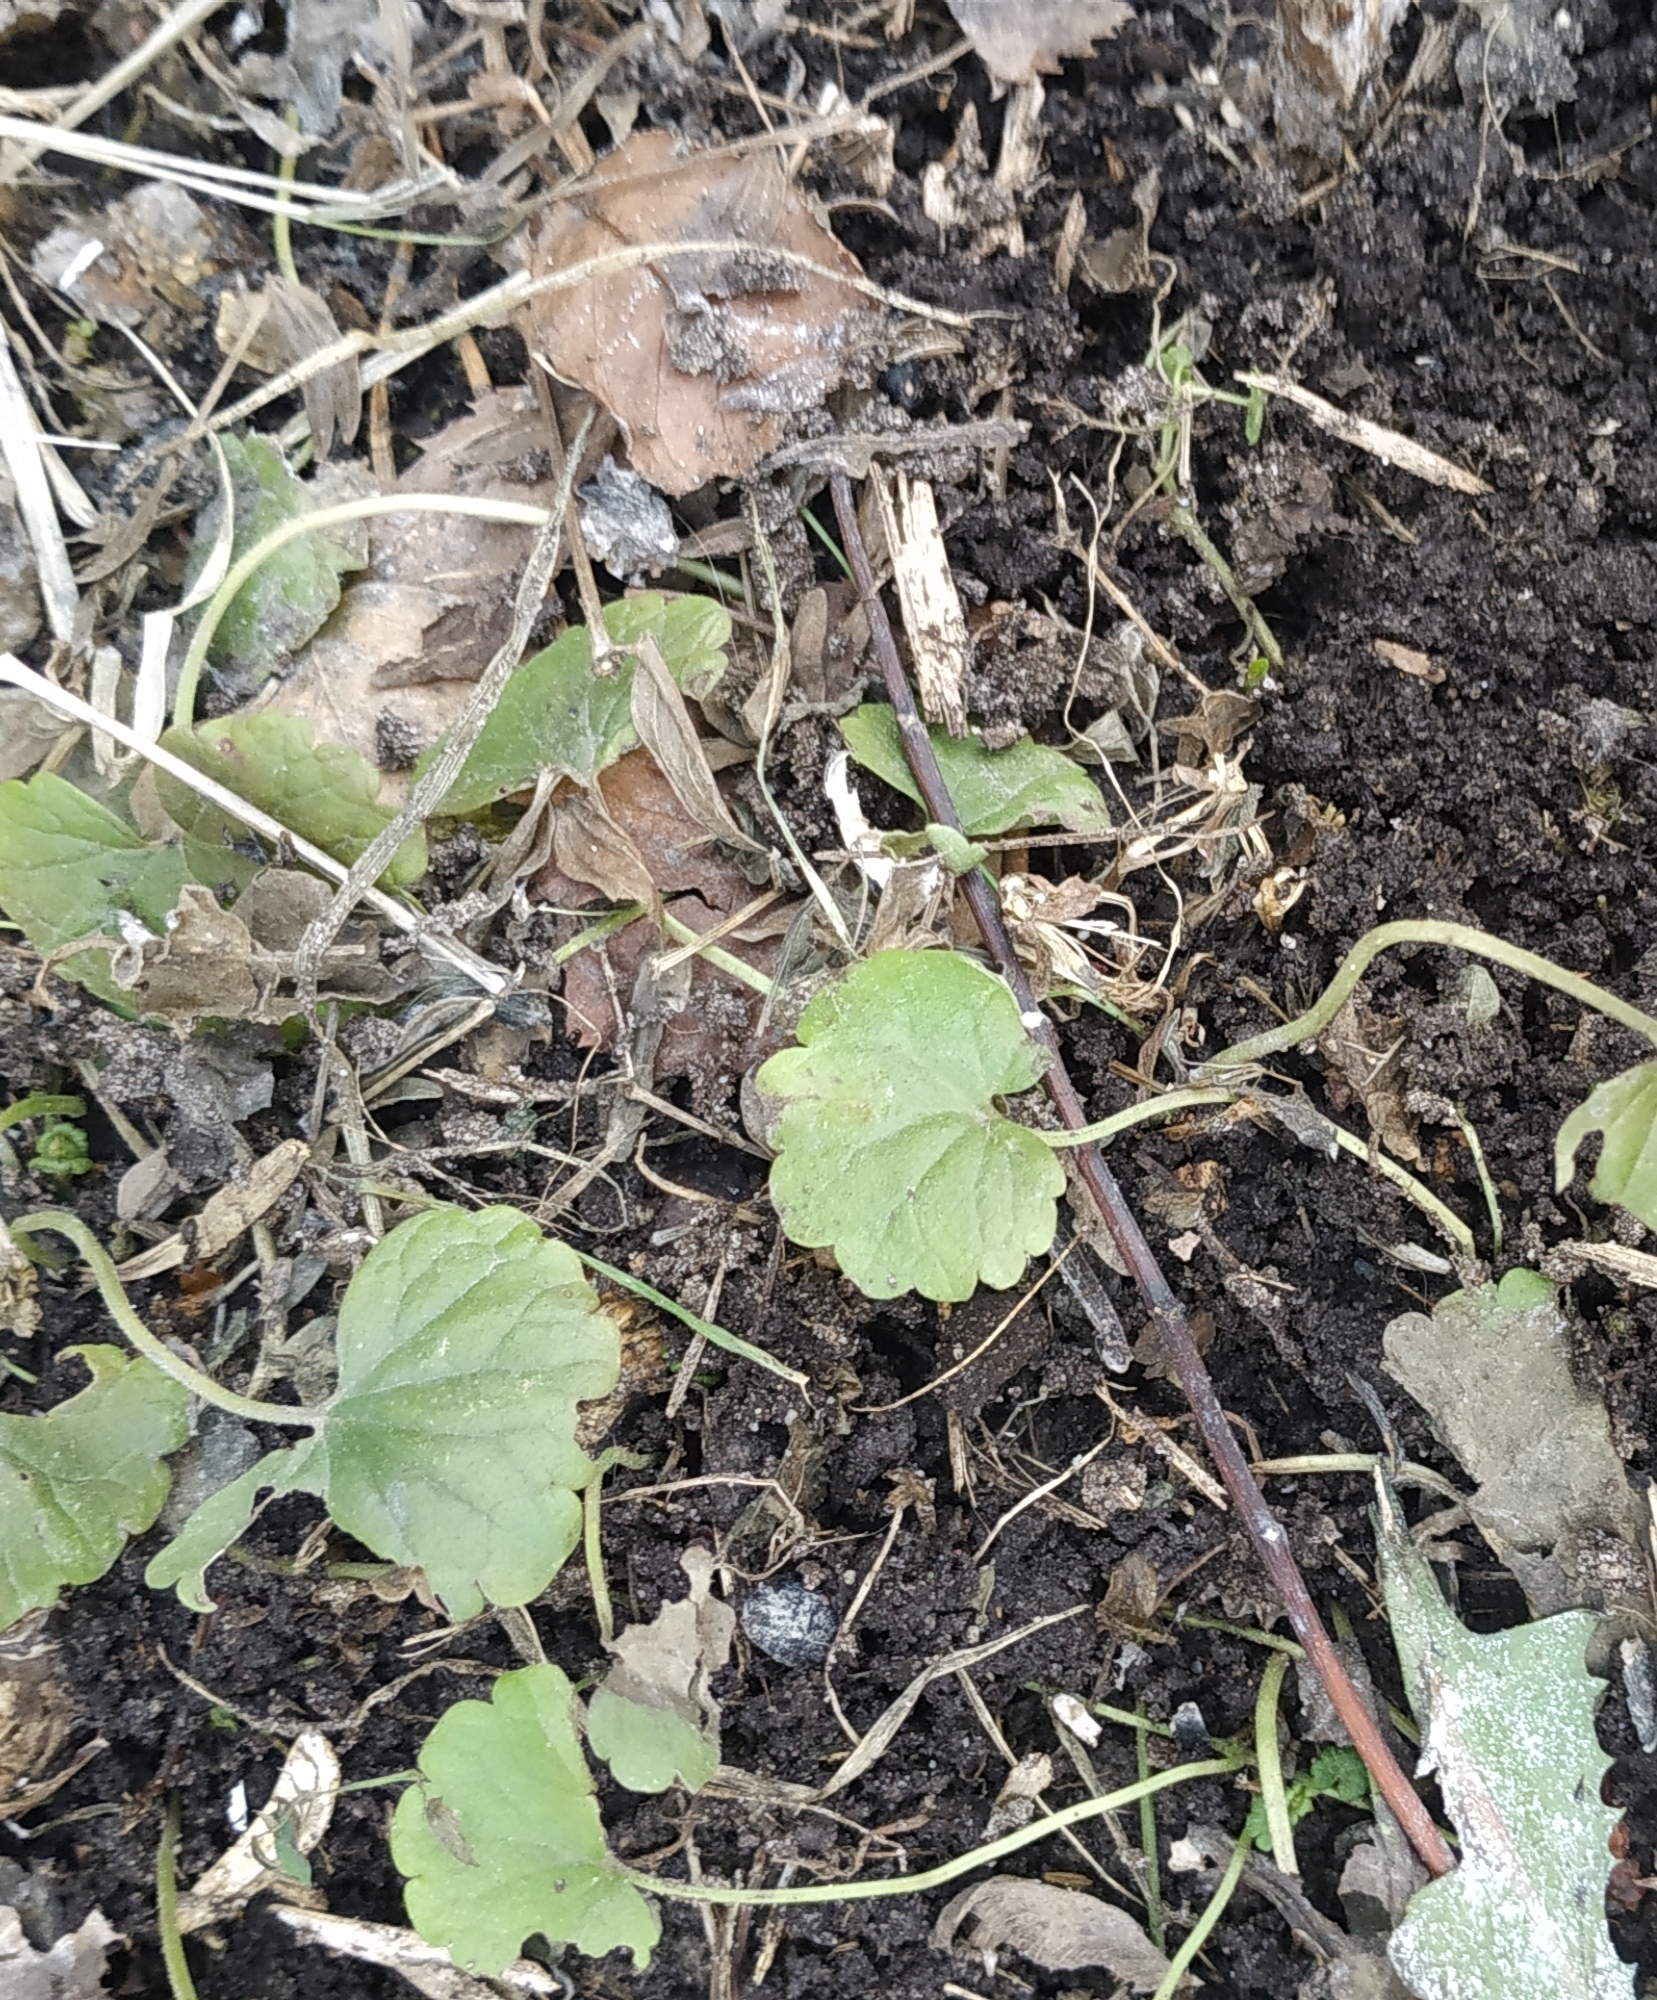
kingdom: Plantae
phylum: Tracheophyta
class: Magnoliopsida
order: Lamiales
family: Lamiaceae
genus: Glechoma
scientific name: Glechoma hederacea
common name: Ground ivy
